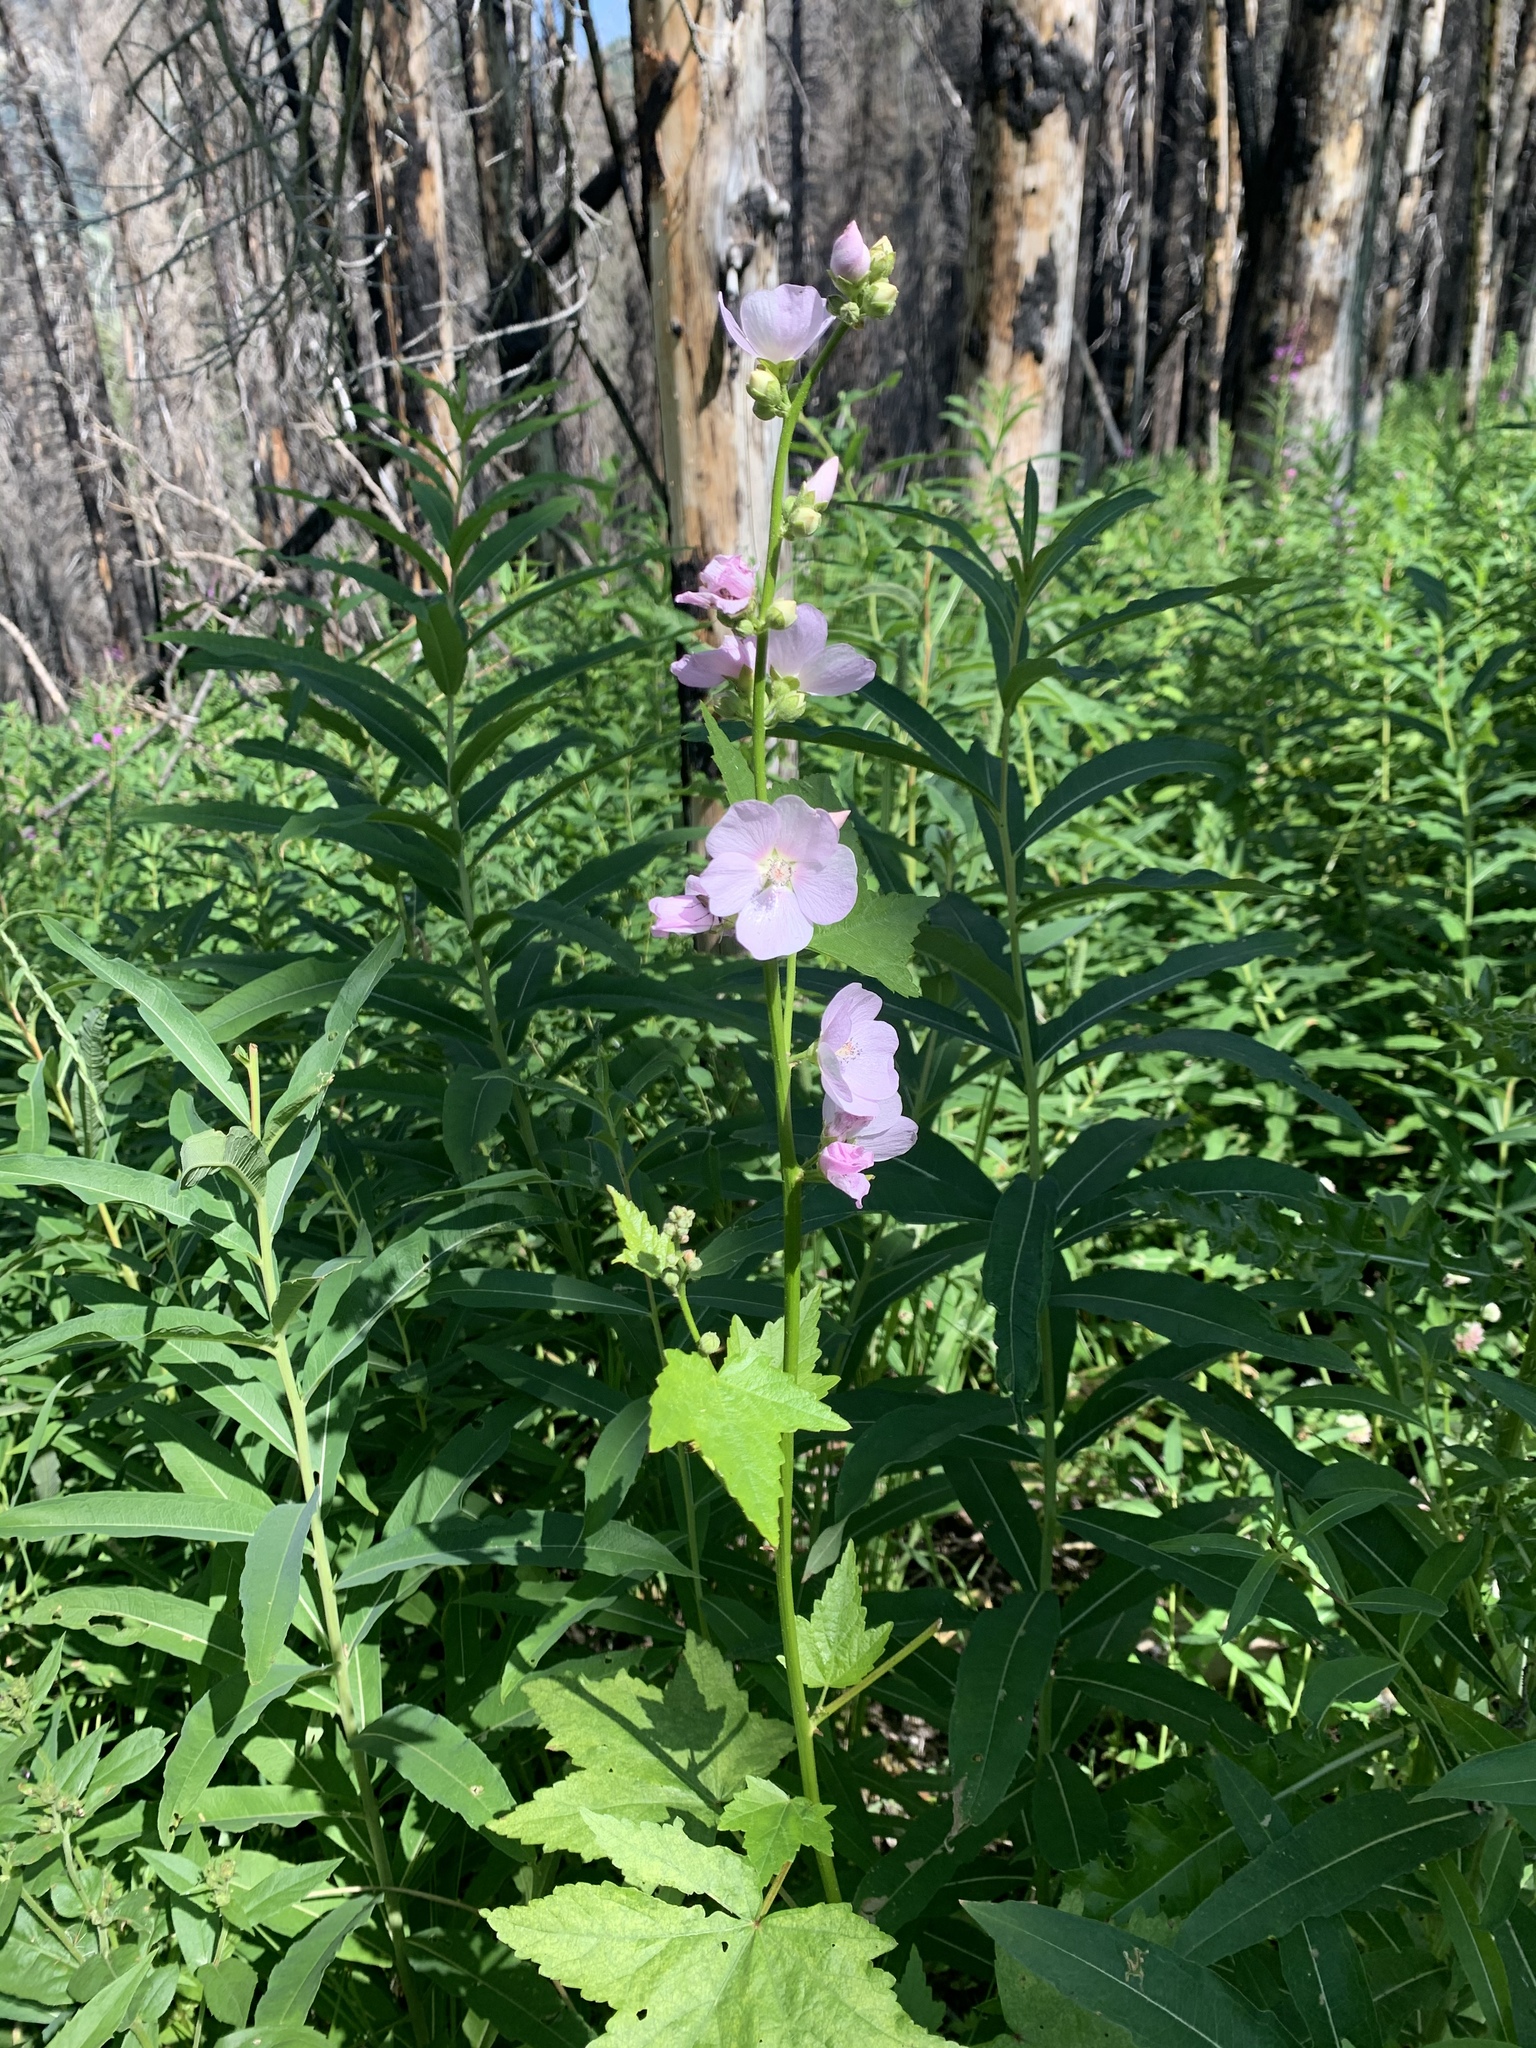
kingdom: Plantae
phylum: Tracheophyta
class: Magnoliopsida
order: Malvales
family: Malvaceae
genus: Iliamna
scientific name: Iliamna rivularis
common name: Wild hollyhock
